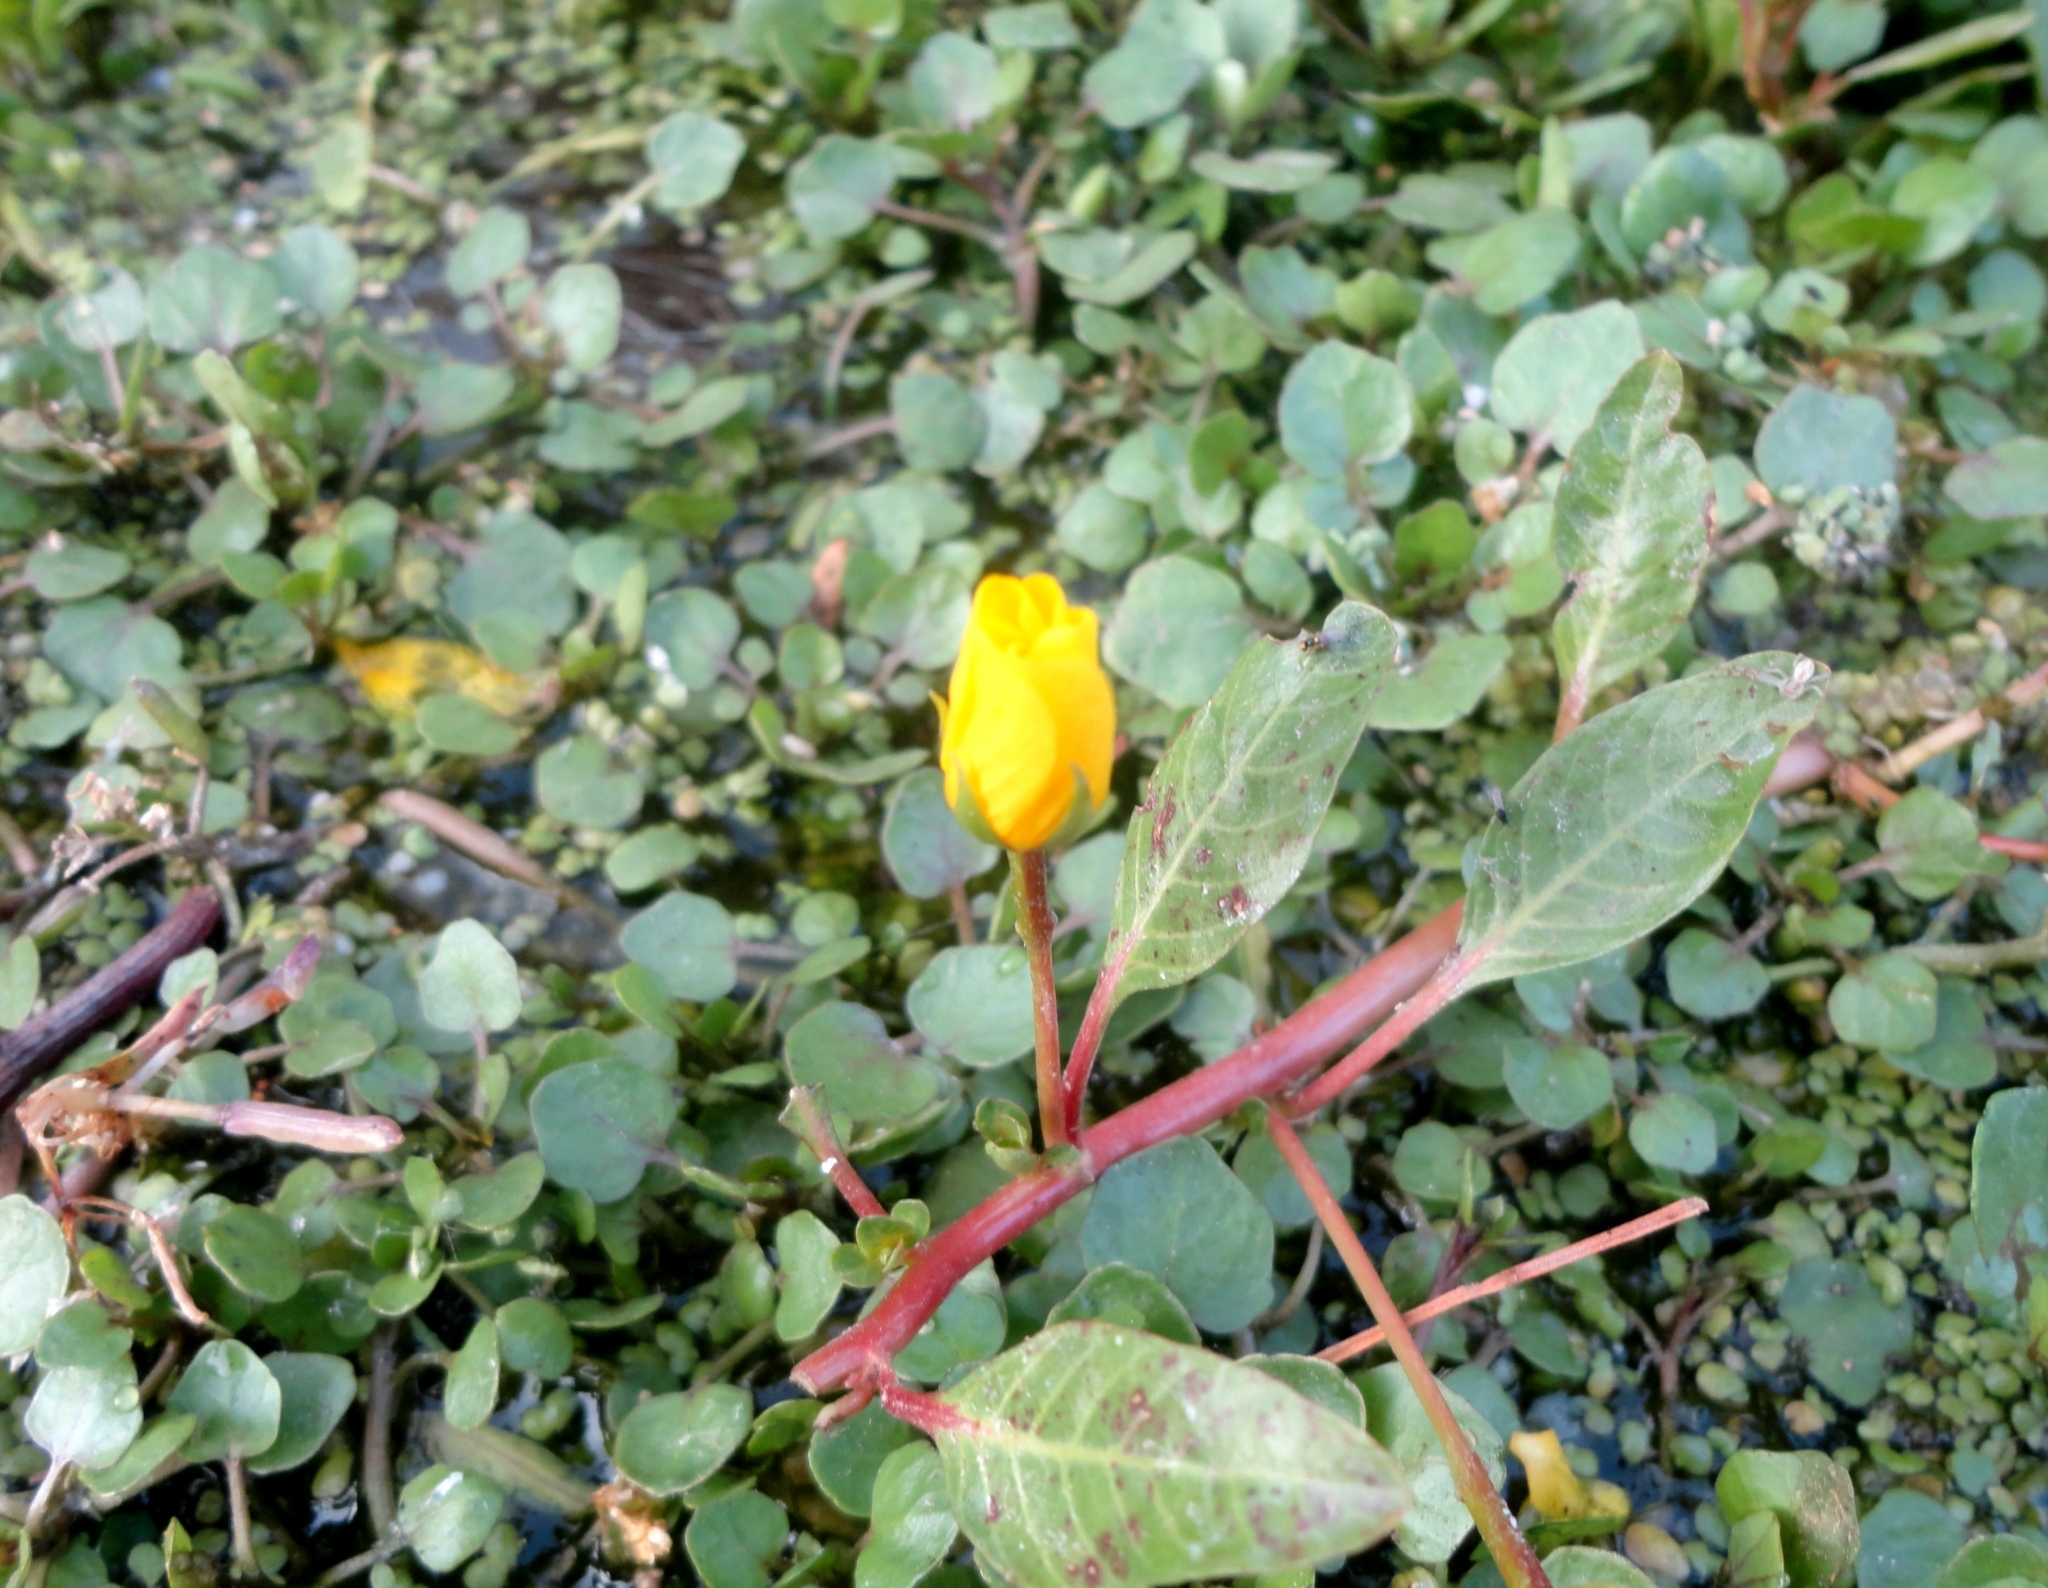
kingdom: Plantae
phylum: Tracheophyta
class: Magnoliopsida
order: Myrtales
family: Onagraceae
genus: Ludwigia
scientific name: Ludwigia peploides
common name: Floating primrose-willow
